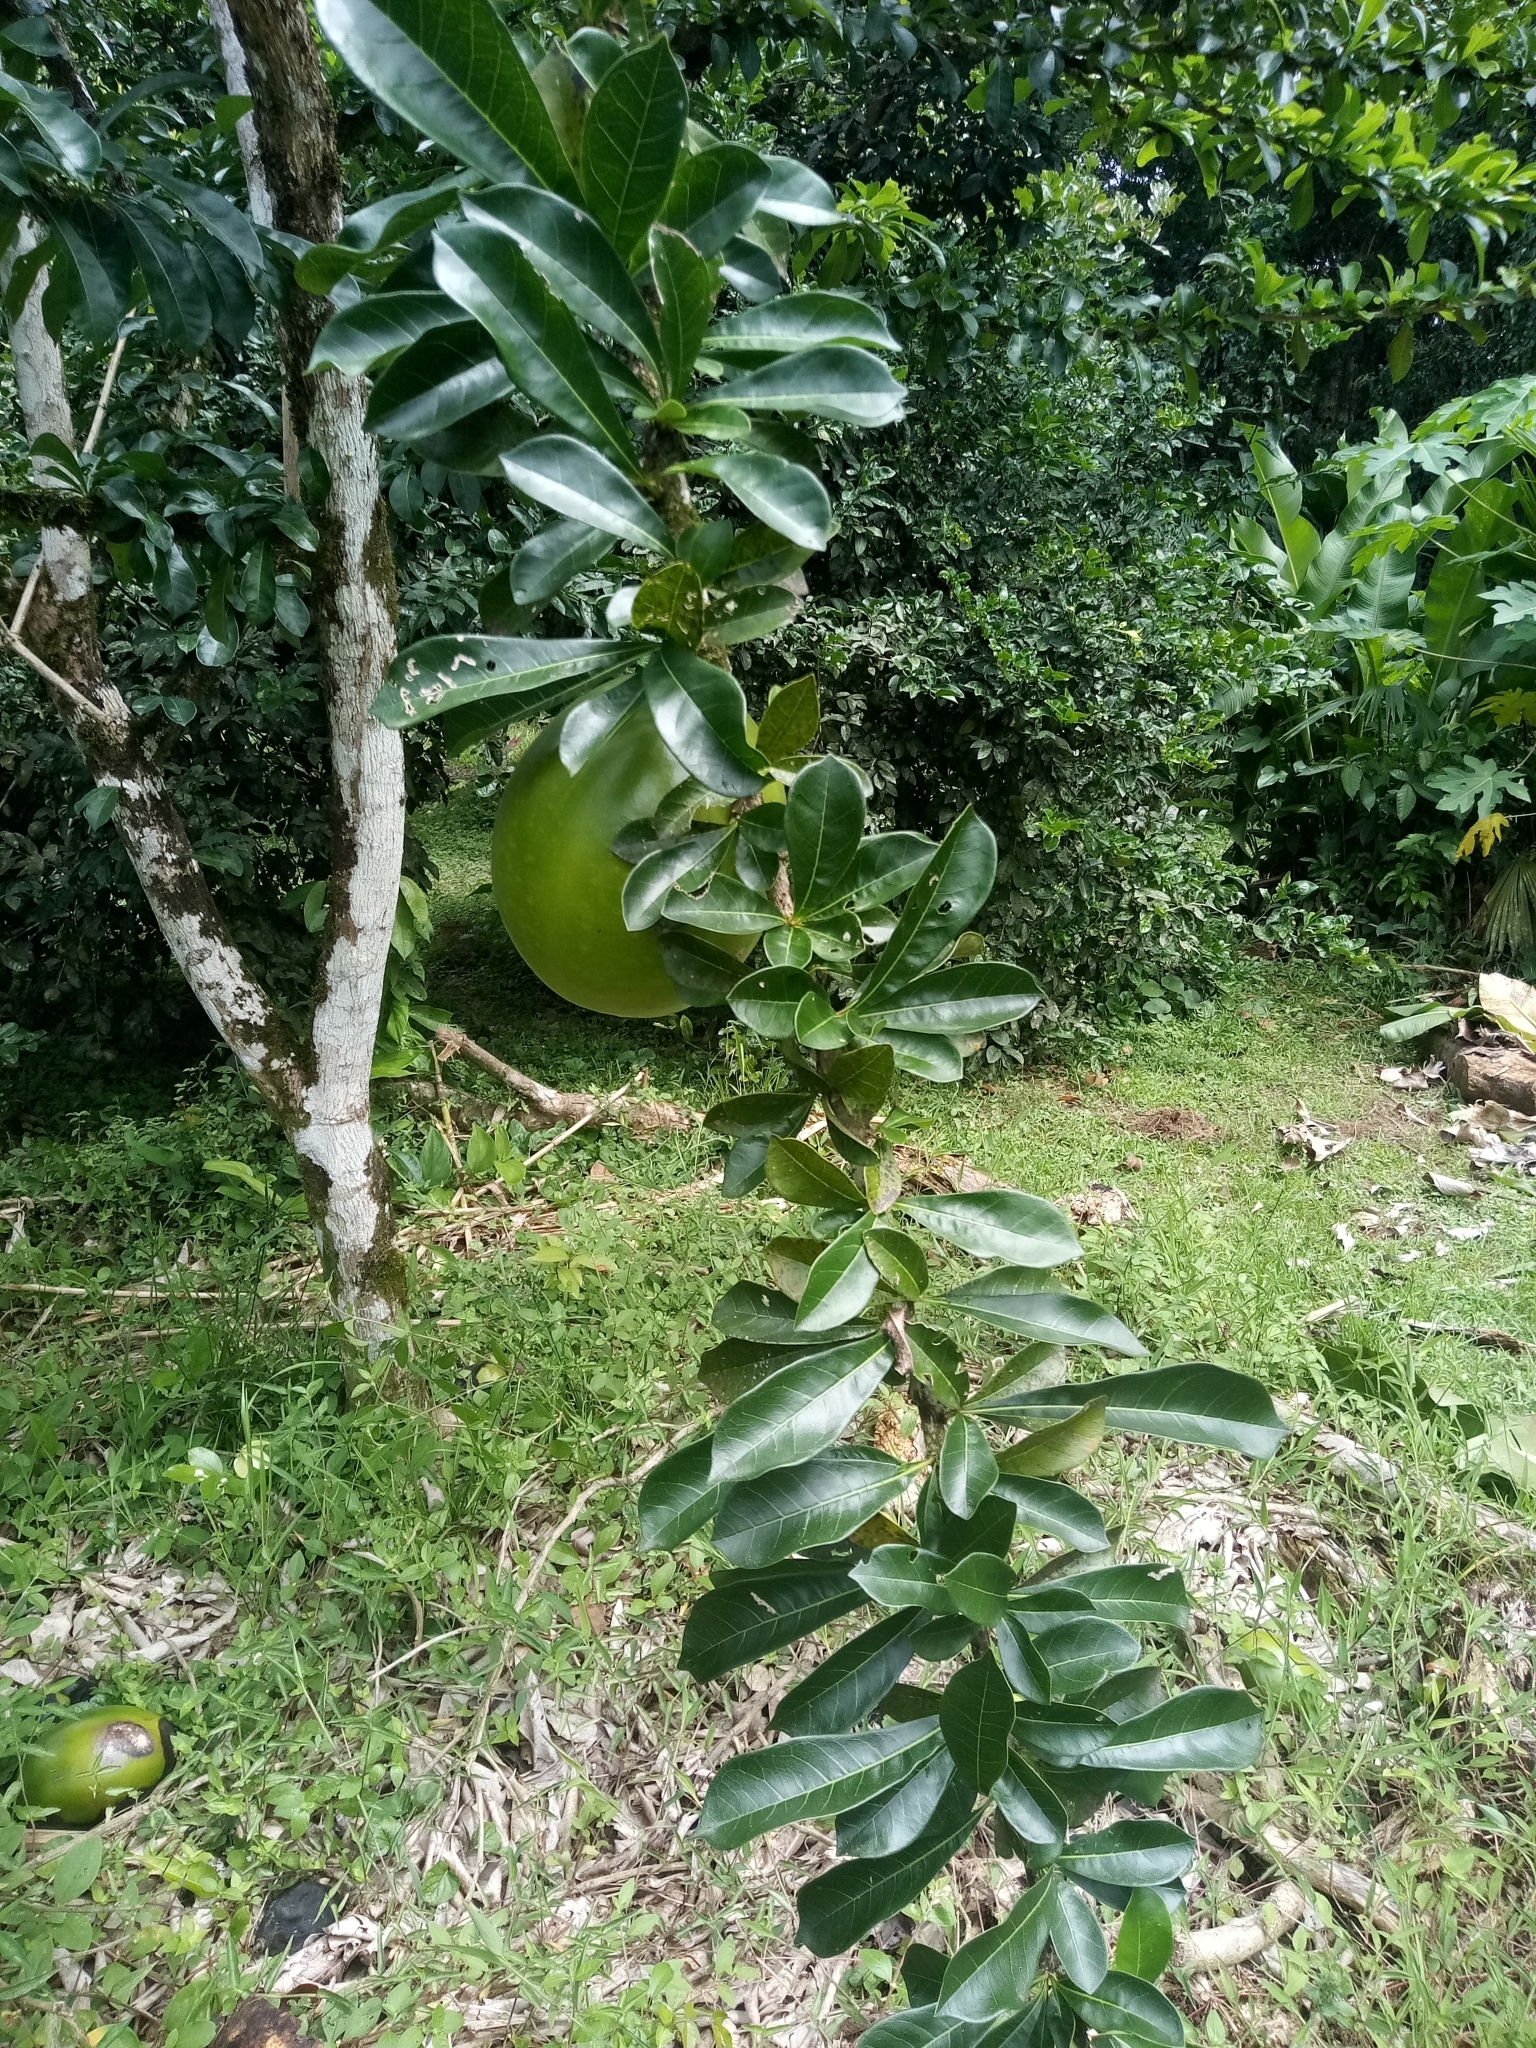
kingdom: Plantae
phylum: Tracheophyta
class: Magnoliopsida
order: Lamiales
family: Bignoniaceae
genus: Crescentia
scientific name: Crescentia cujete
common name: Calabash
